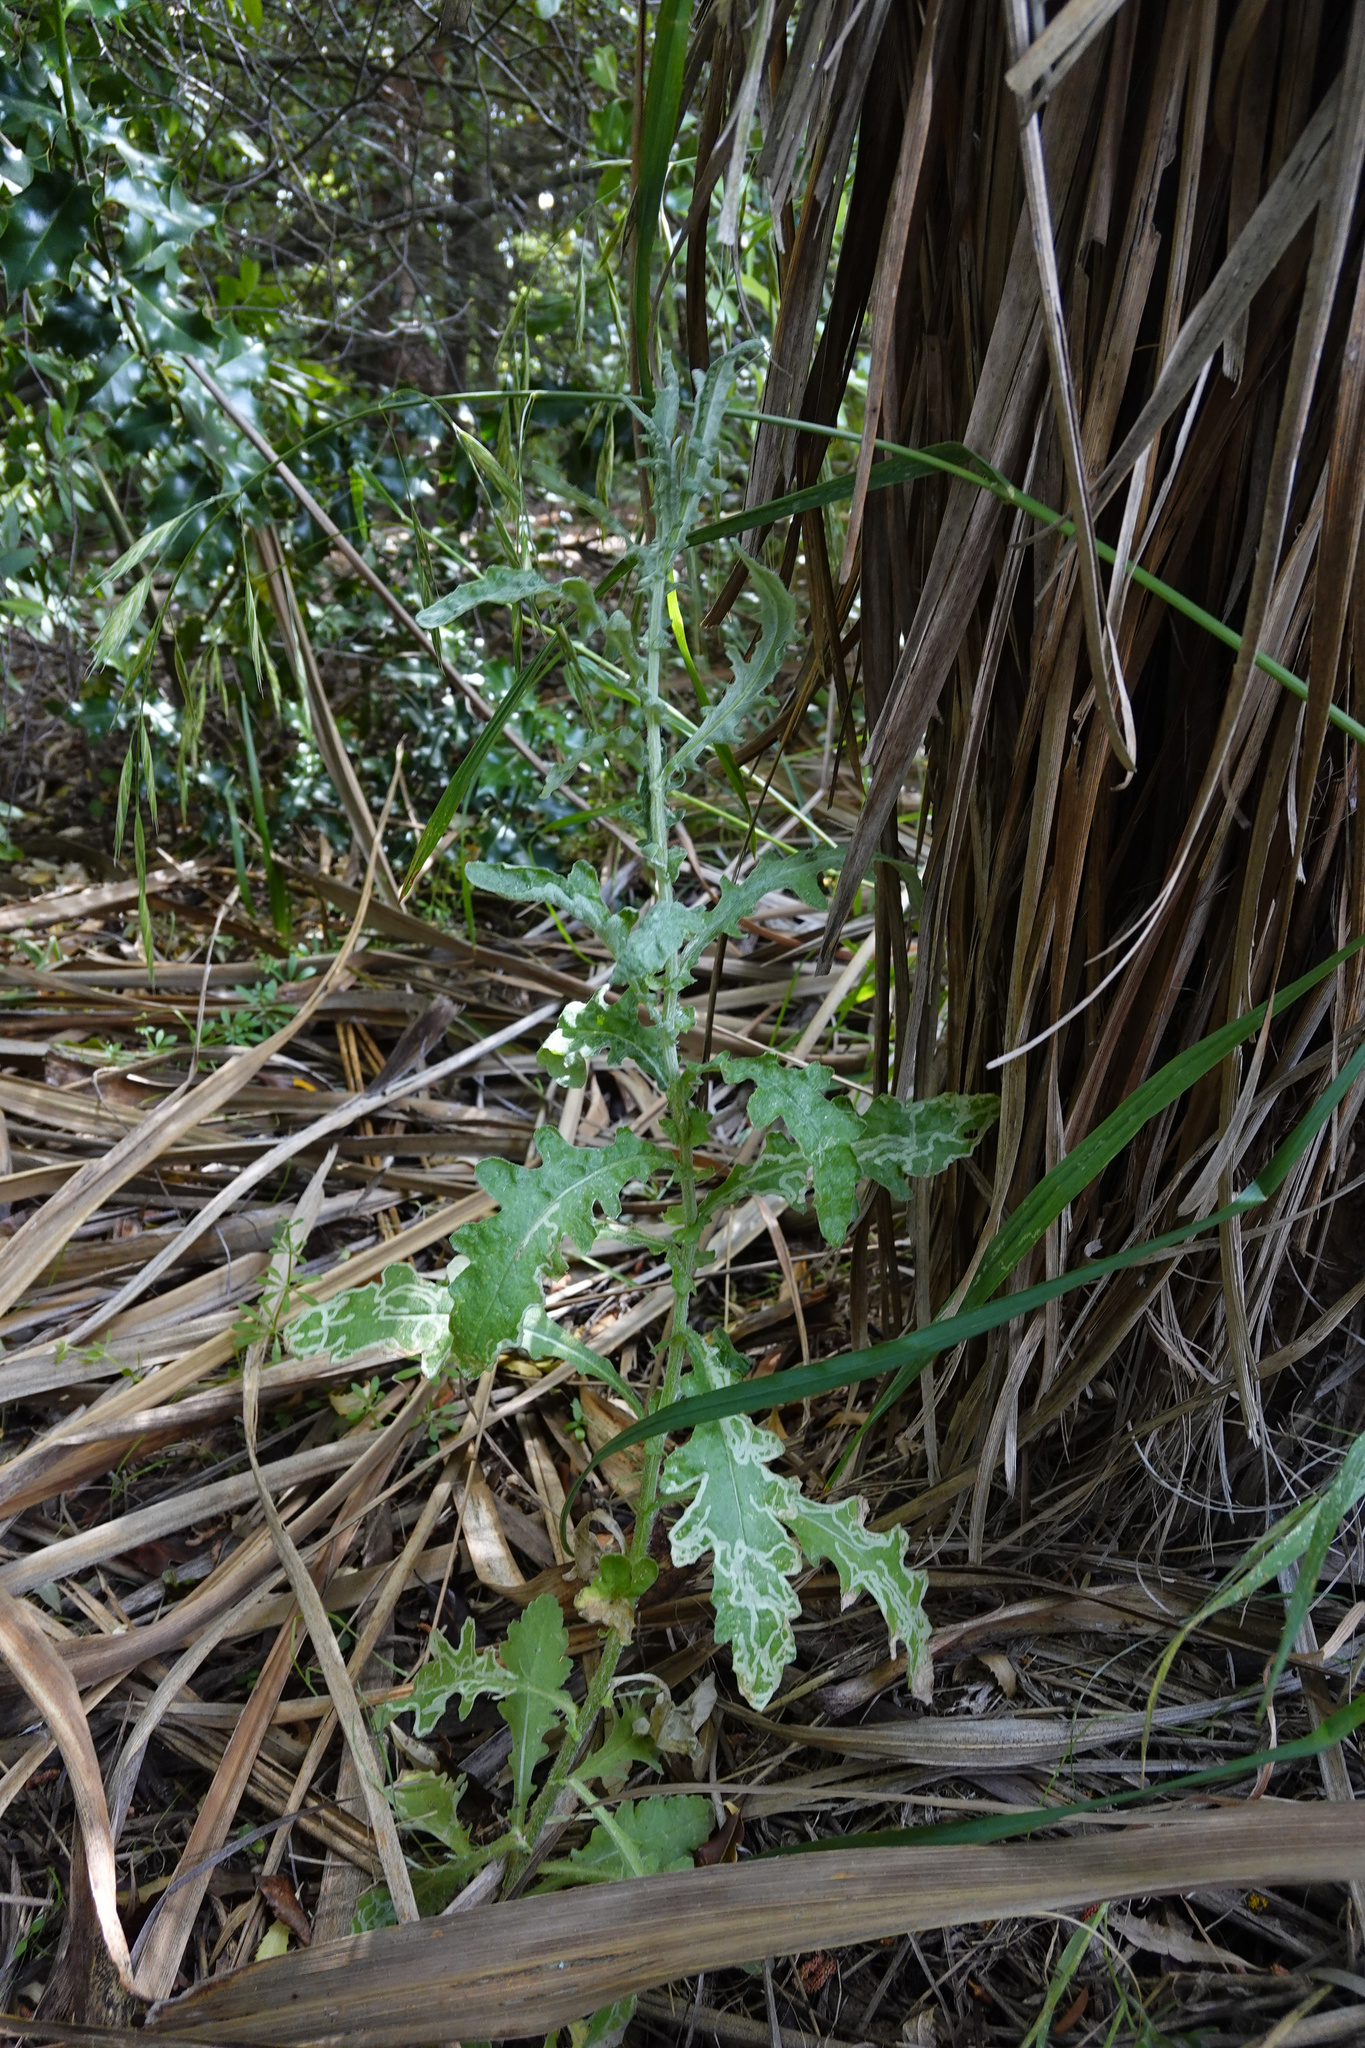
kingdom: Plantae
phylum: Tracheophyta
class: Magnoliopsida
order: Asterales
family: Asteraceae
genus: Senecio
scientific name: Senecio glomeratus
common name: Cutleaf burnweed
